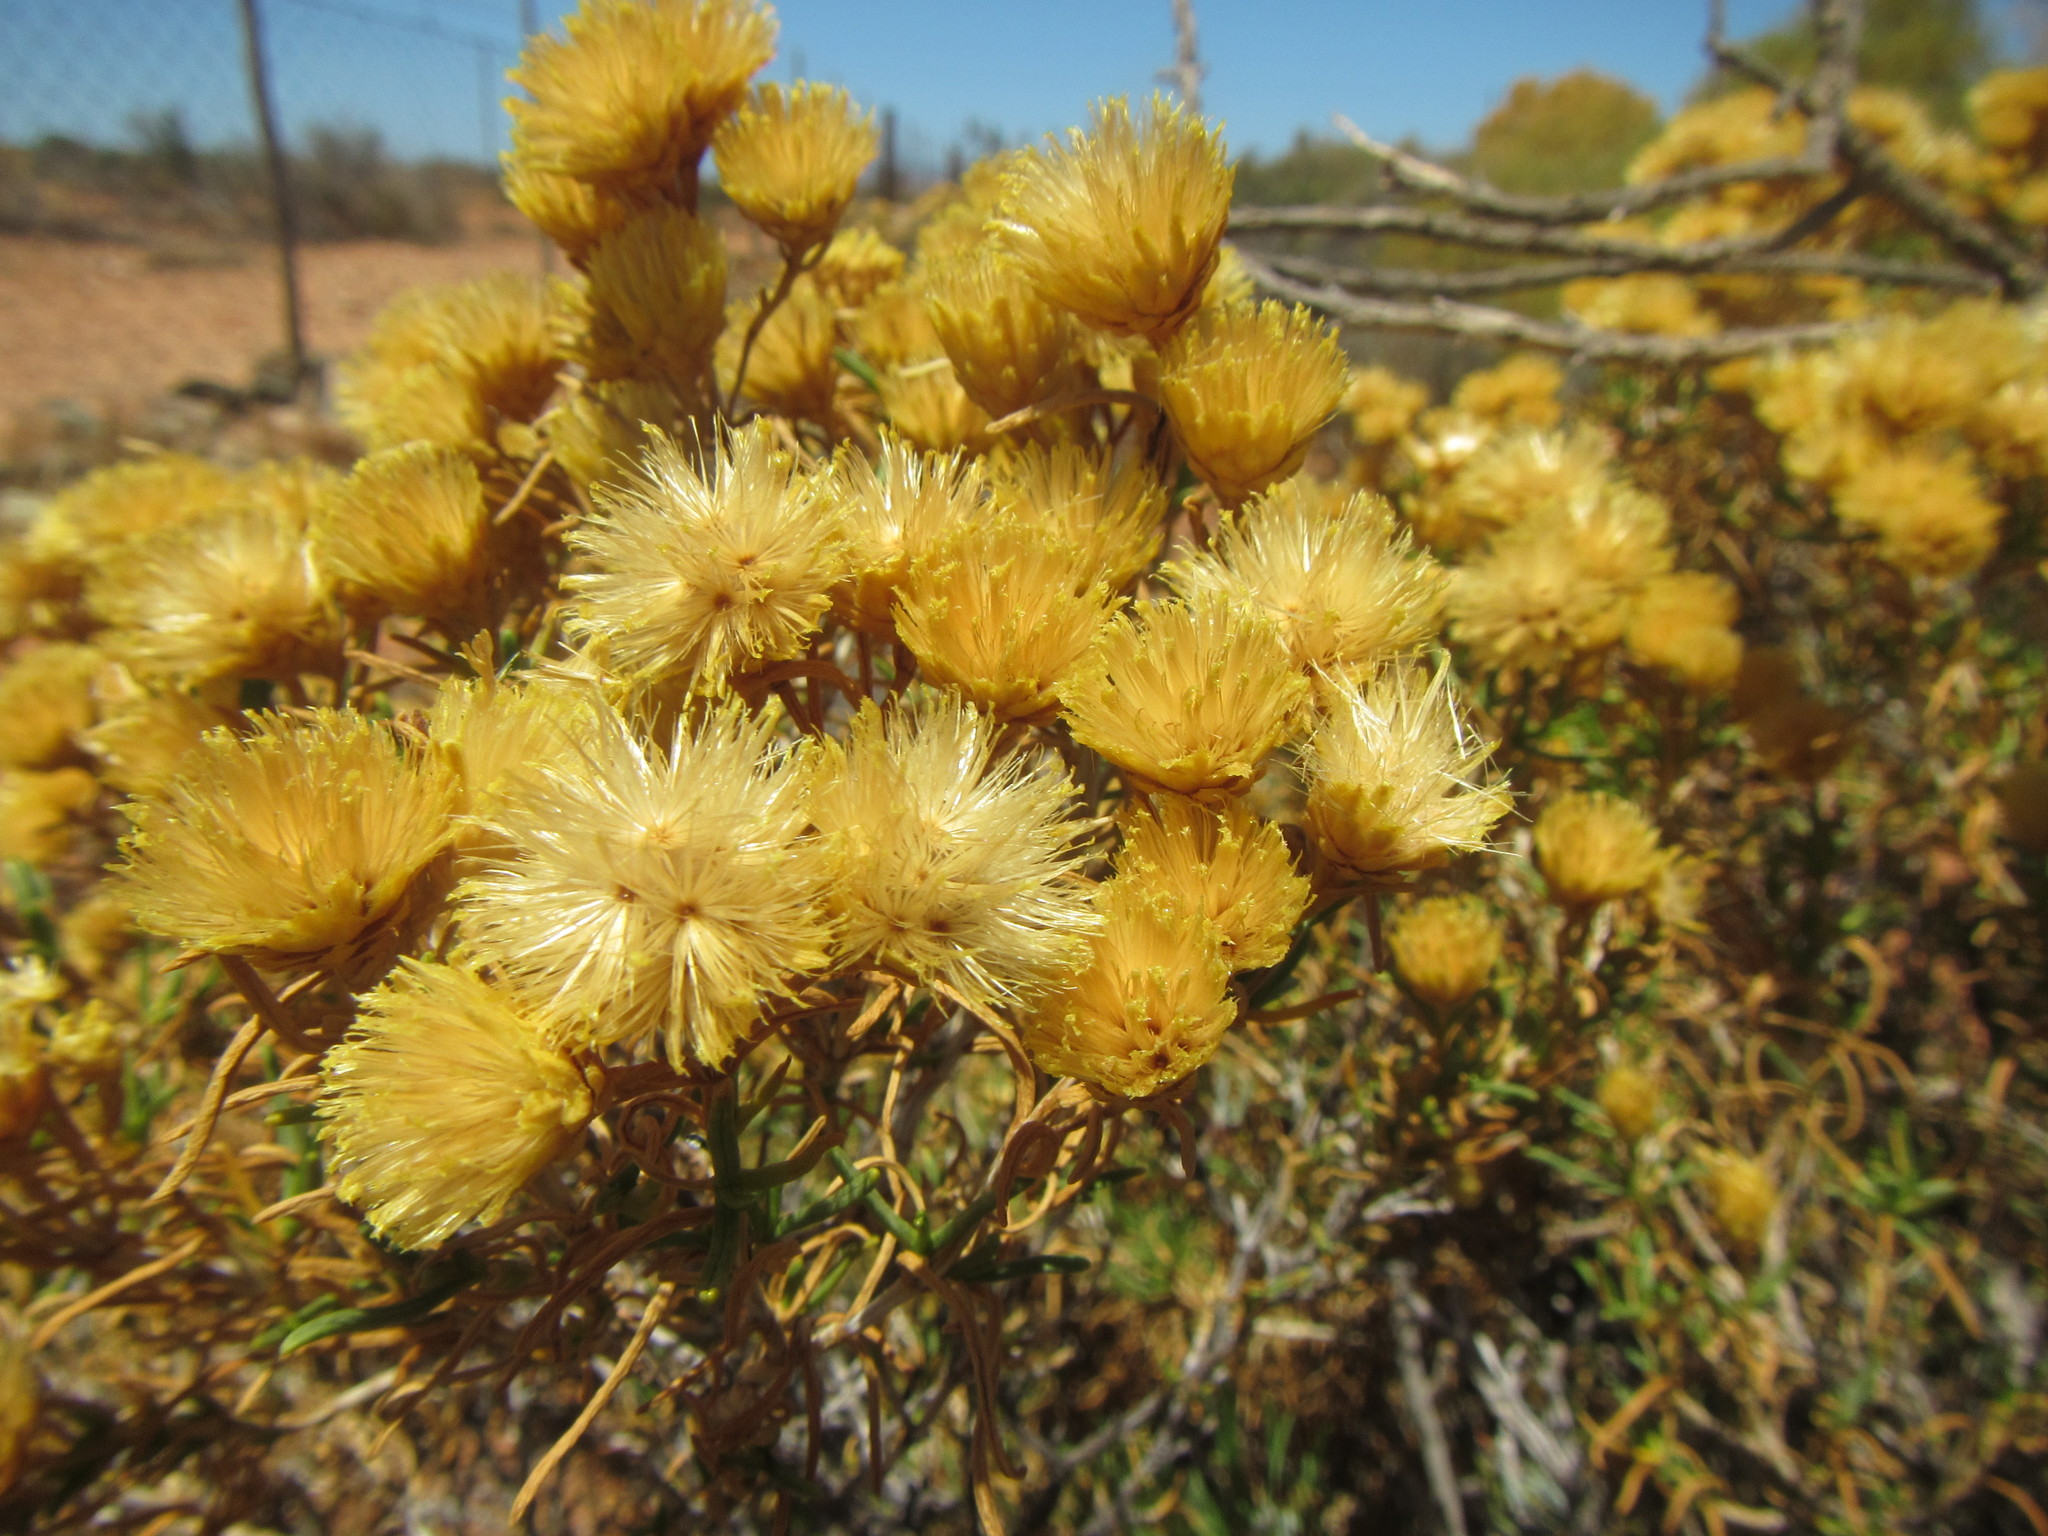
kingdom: Plantae
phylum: Tracheophyta
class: Magnoliopsida
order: Asterales
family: Asteraceae
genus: Pteronia
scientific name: Pteronia pallens
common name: Scholtzbush
